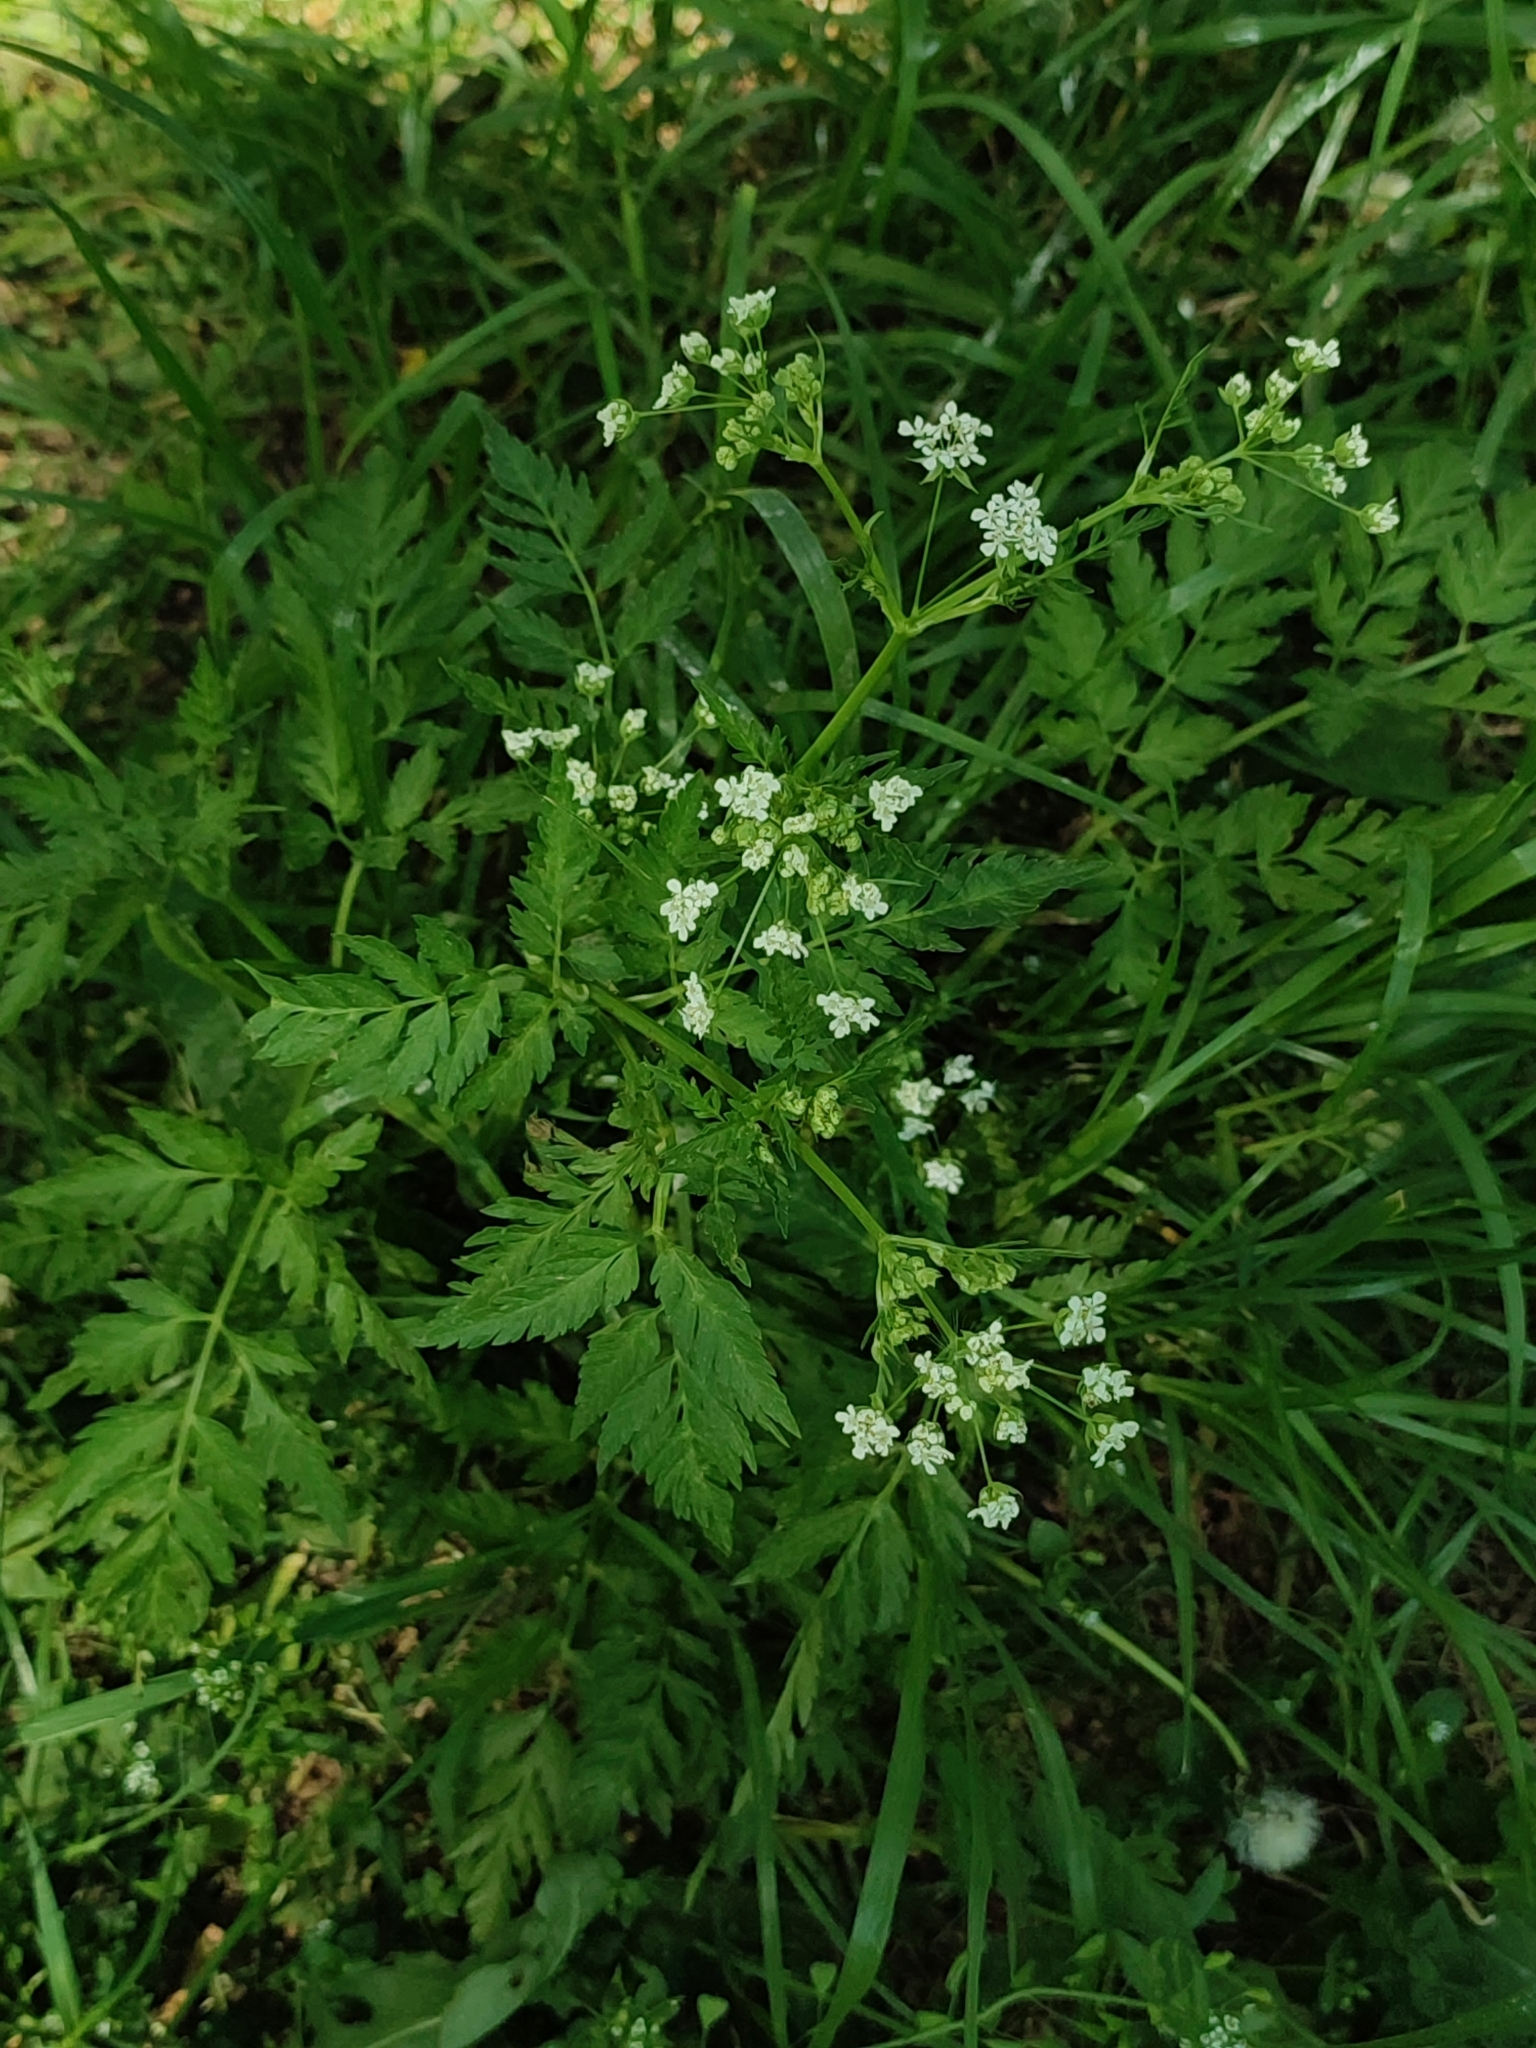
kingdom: Plantae
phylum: Tracheophyta
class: Magnoliopsida
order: Apiales
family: Apiaceae
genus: Anthriscus
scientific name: Anthriscus sylvestris
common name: Cow parsley
